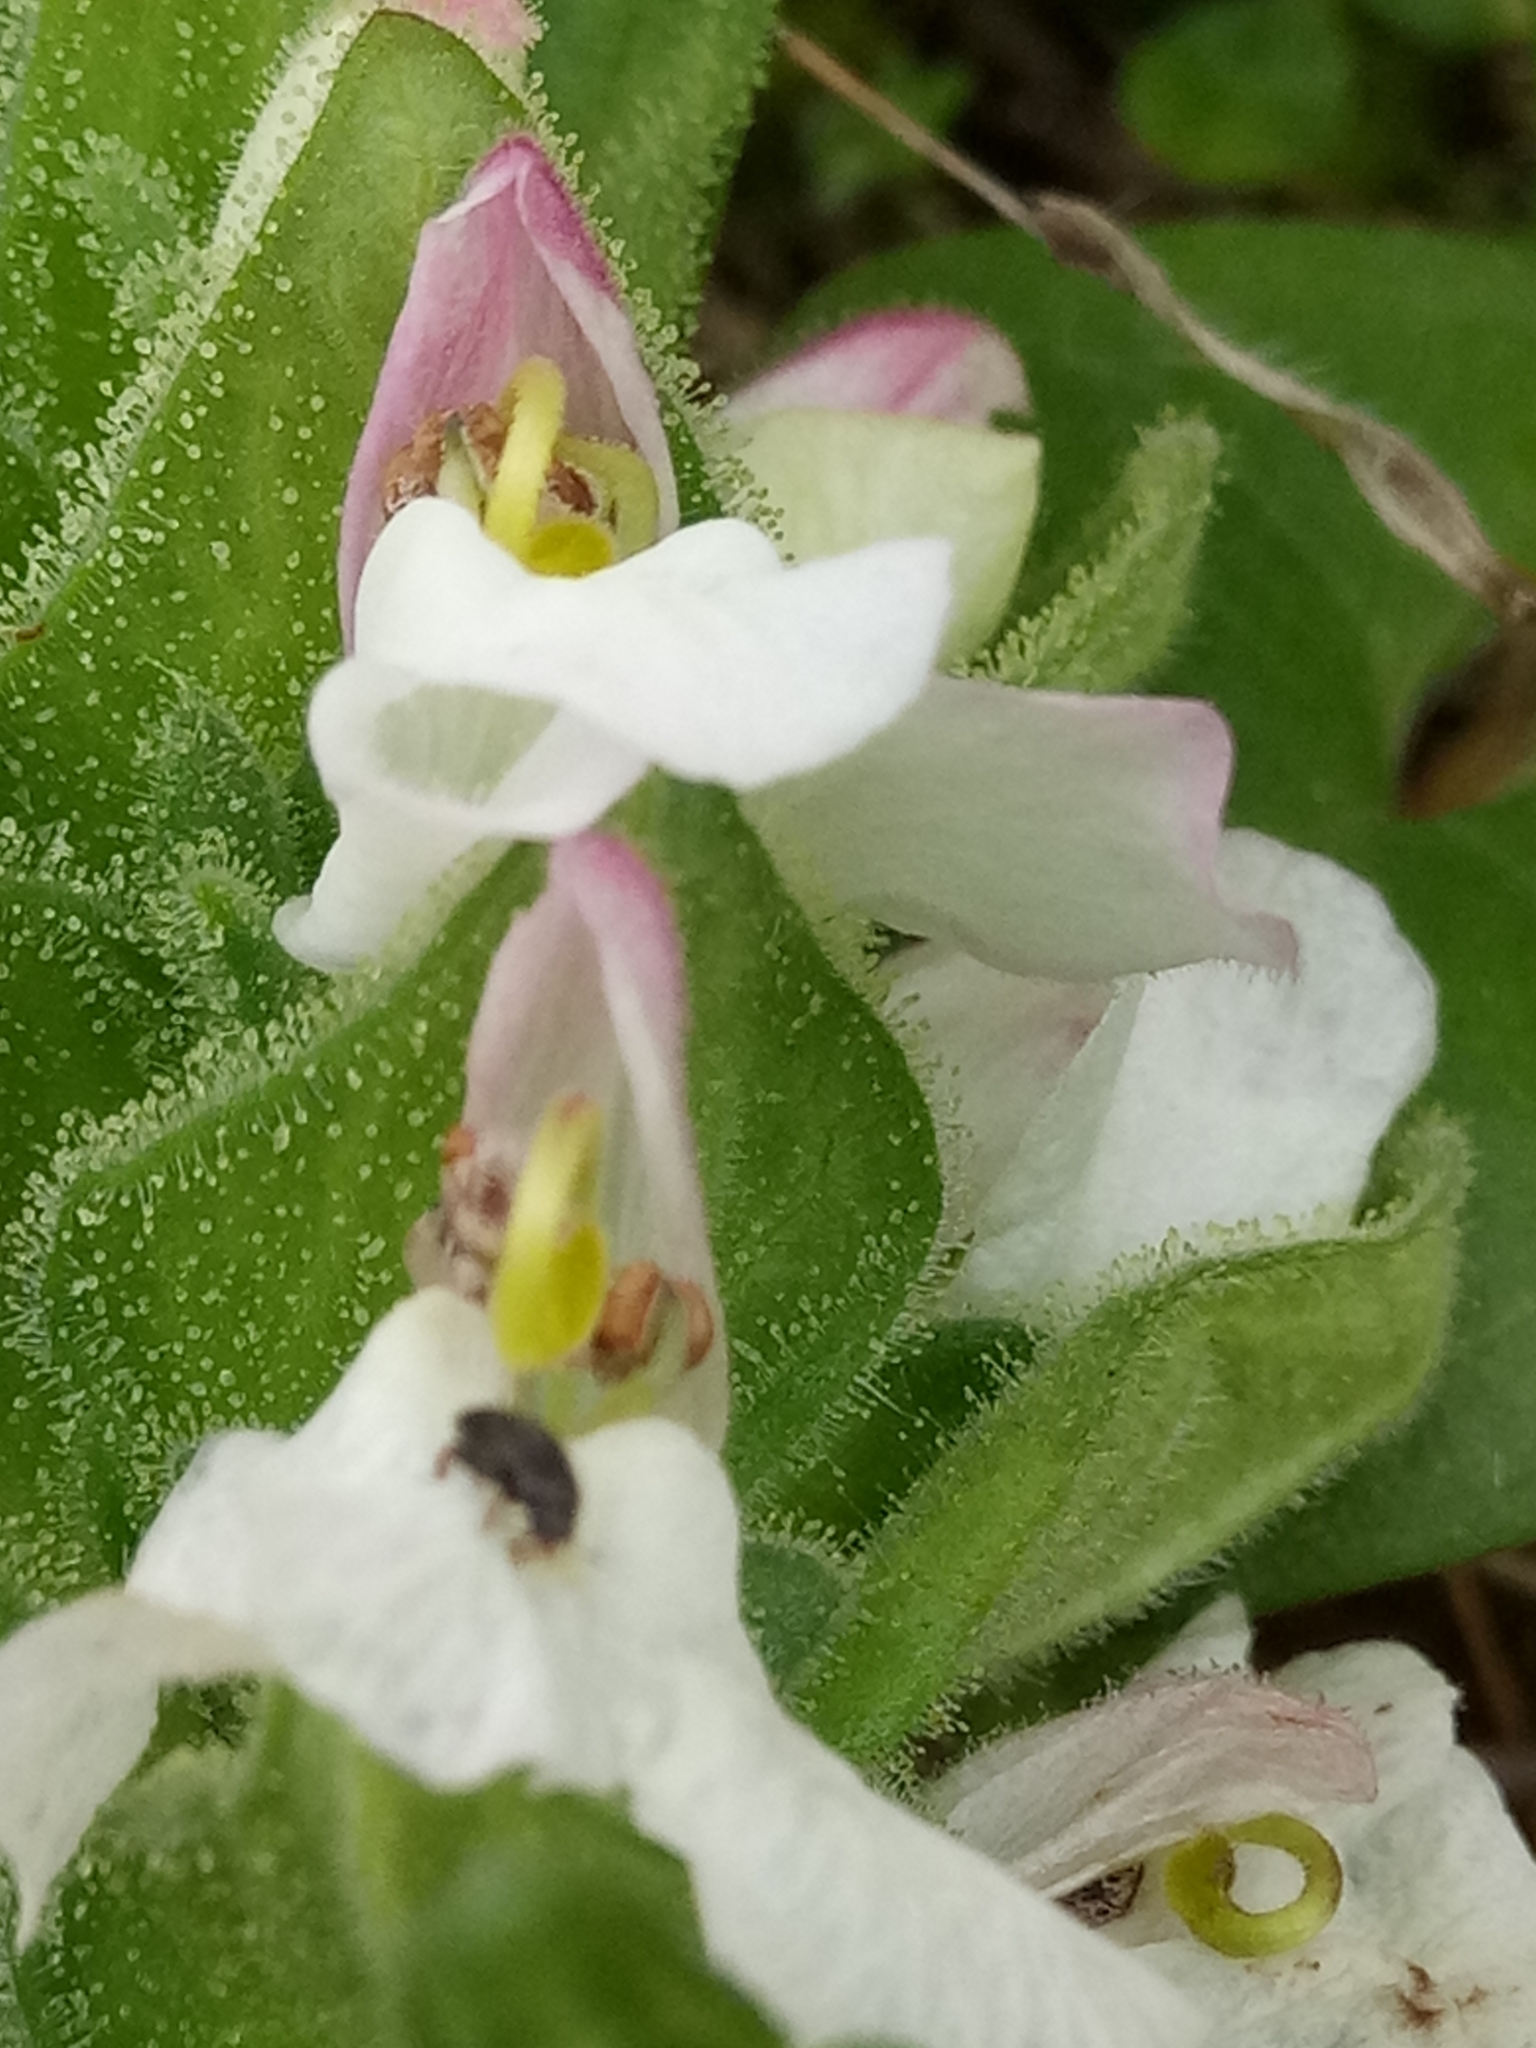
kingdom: Plantae
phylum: Tracheophyta
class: Magnoliopsida
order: Lamiales
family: Orobanchaceae
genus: Bellardia
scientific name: Bellardia trixago
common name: Mediterranean lineseed
